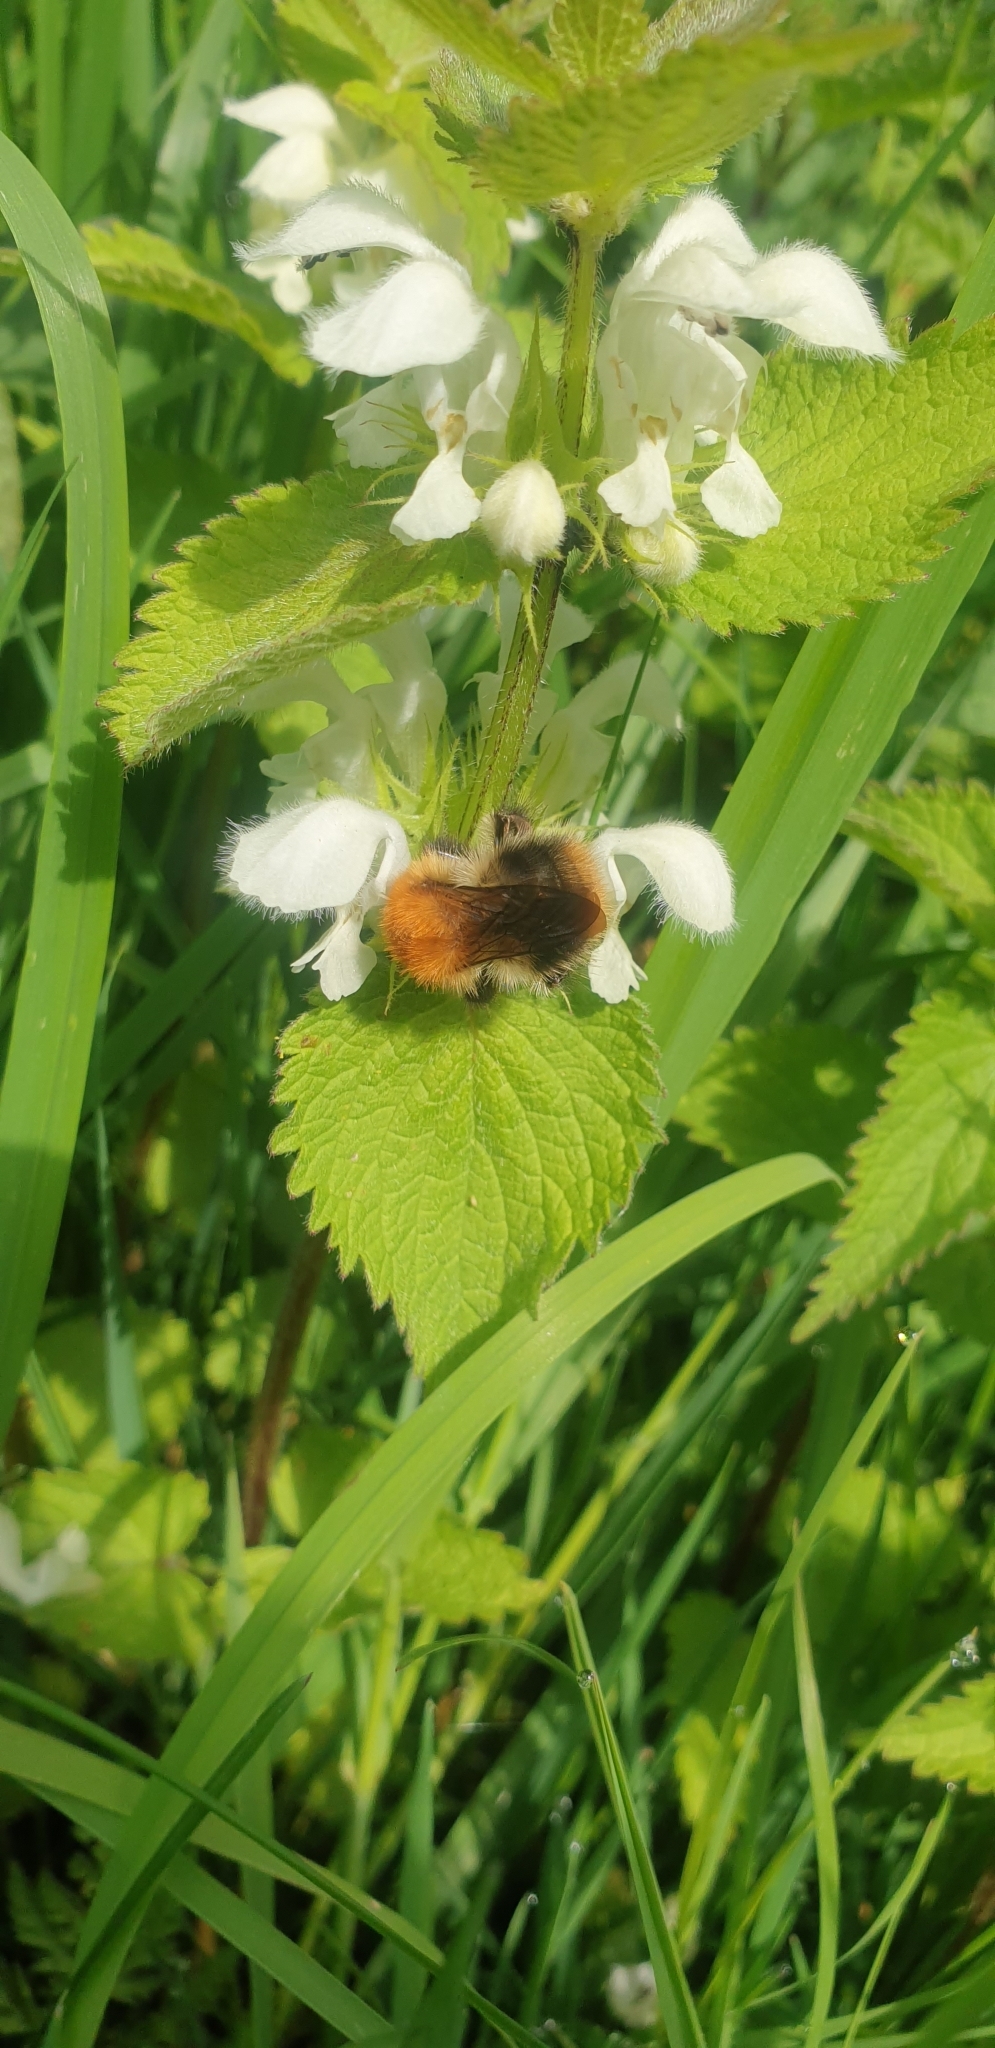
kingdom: Animalia
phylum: Arthropoda
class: Insecta
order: Hymenoptera
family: Apidae
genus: Bombus
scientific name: Bombus pascuorum
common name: Common carder bee
